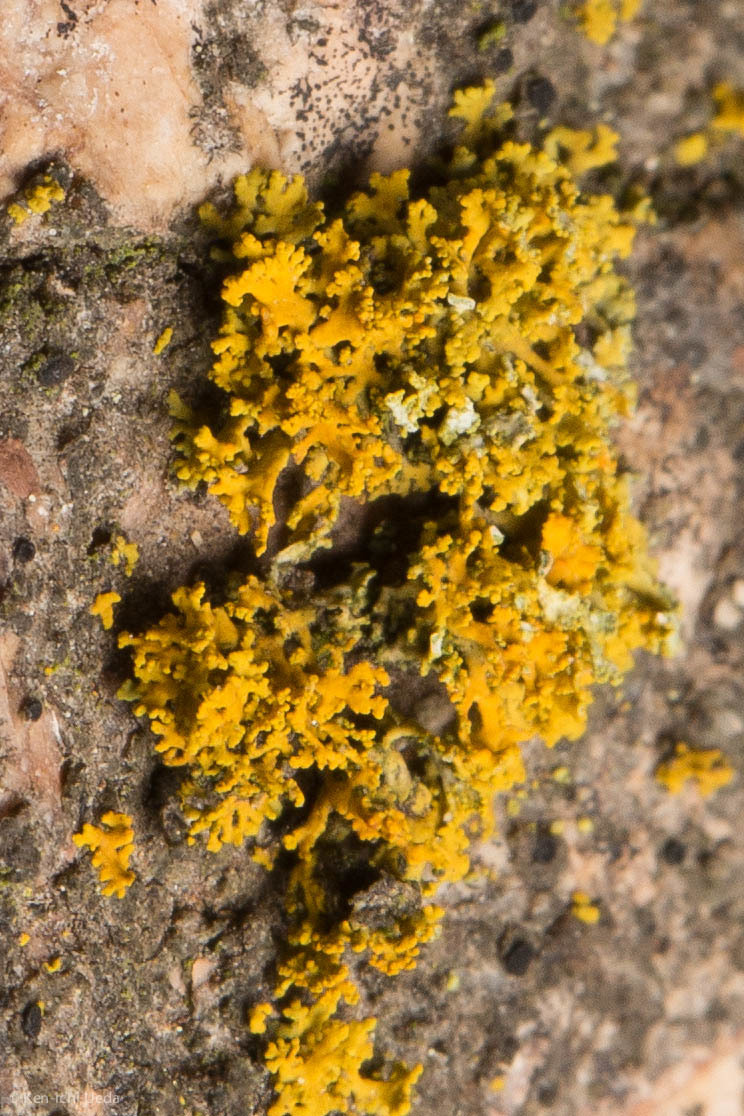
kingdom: Fungi
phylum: Ascomycota
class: Lecanoromycetes
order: Teloschistales
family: Teloschistaceae
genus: Polycauliona
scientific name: Polycauliona candelaria
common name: Shrubby sunburst lichen
